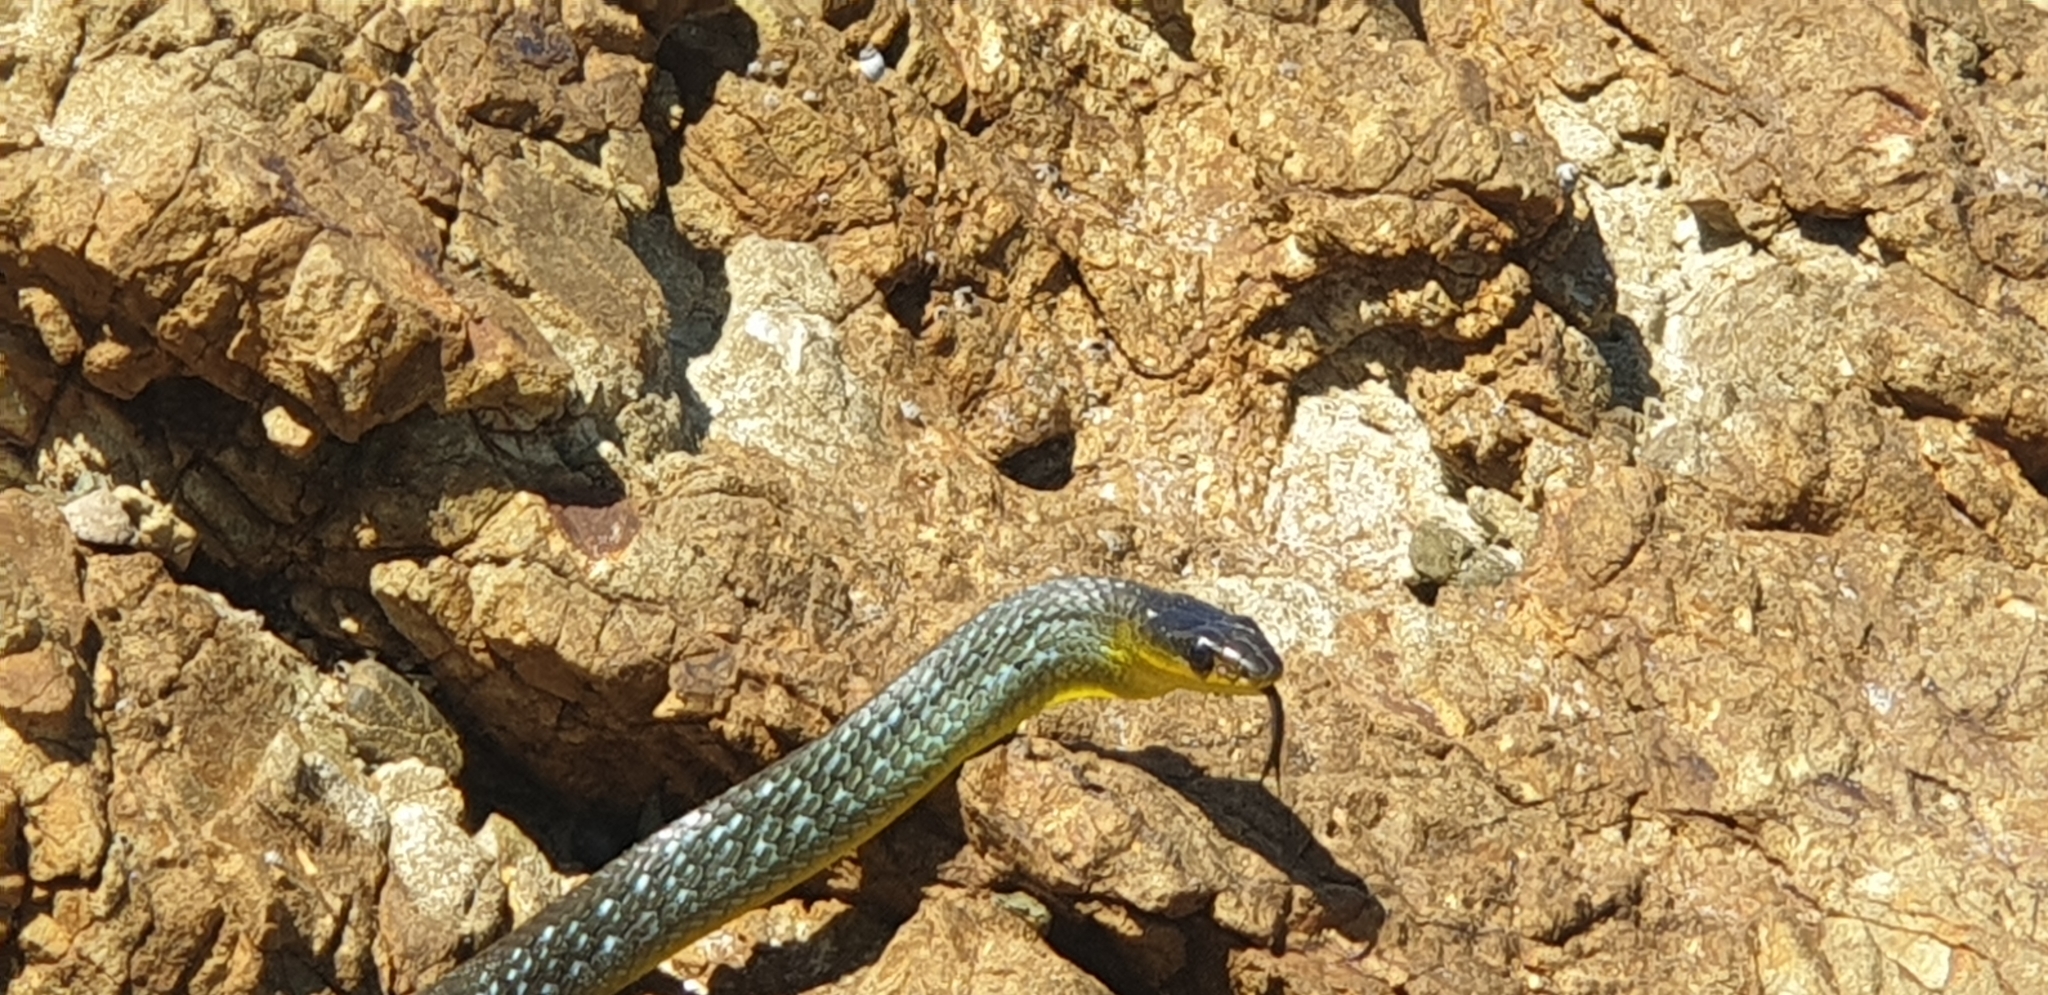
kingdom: Animalia
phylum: Chordata
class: Squamata
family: Colubridae
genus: Dendrelaphis
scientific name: Dendrelaphis punctulatus
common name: Common tree snake
